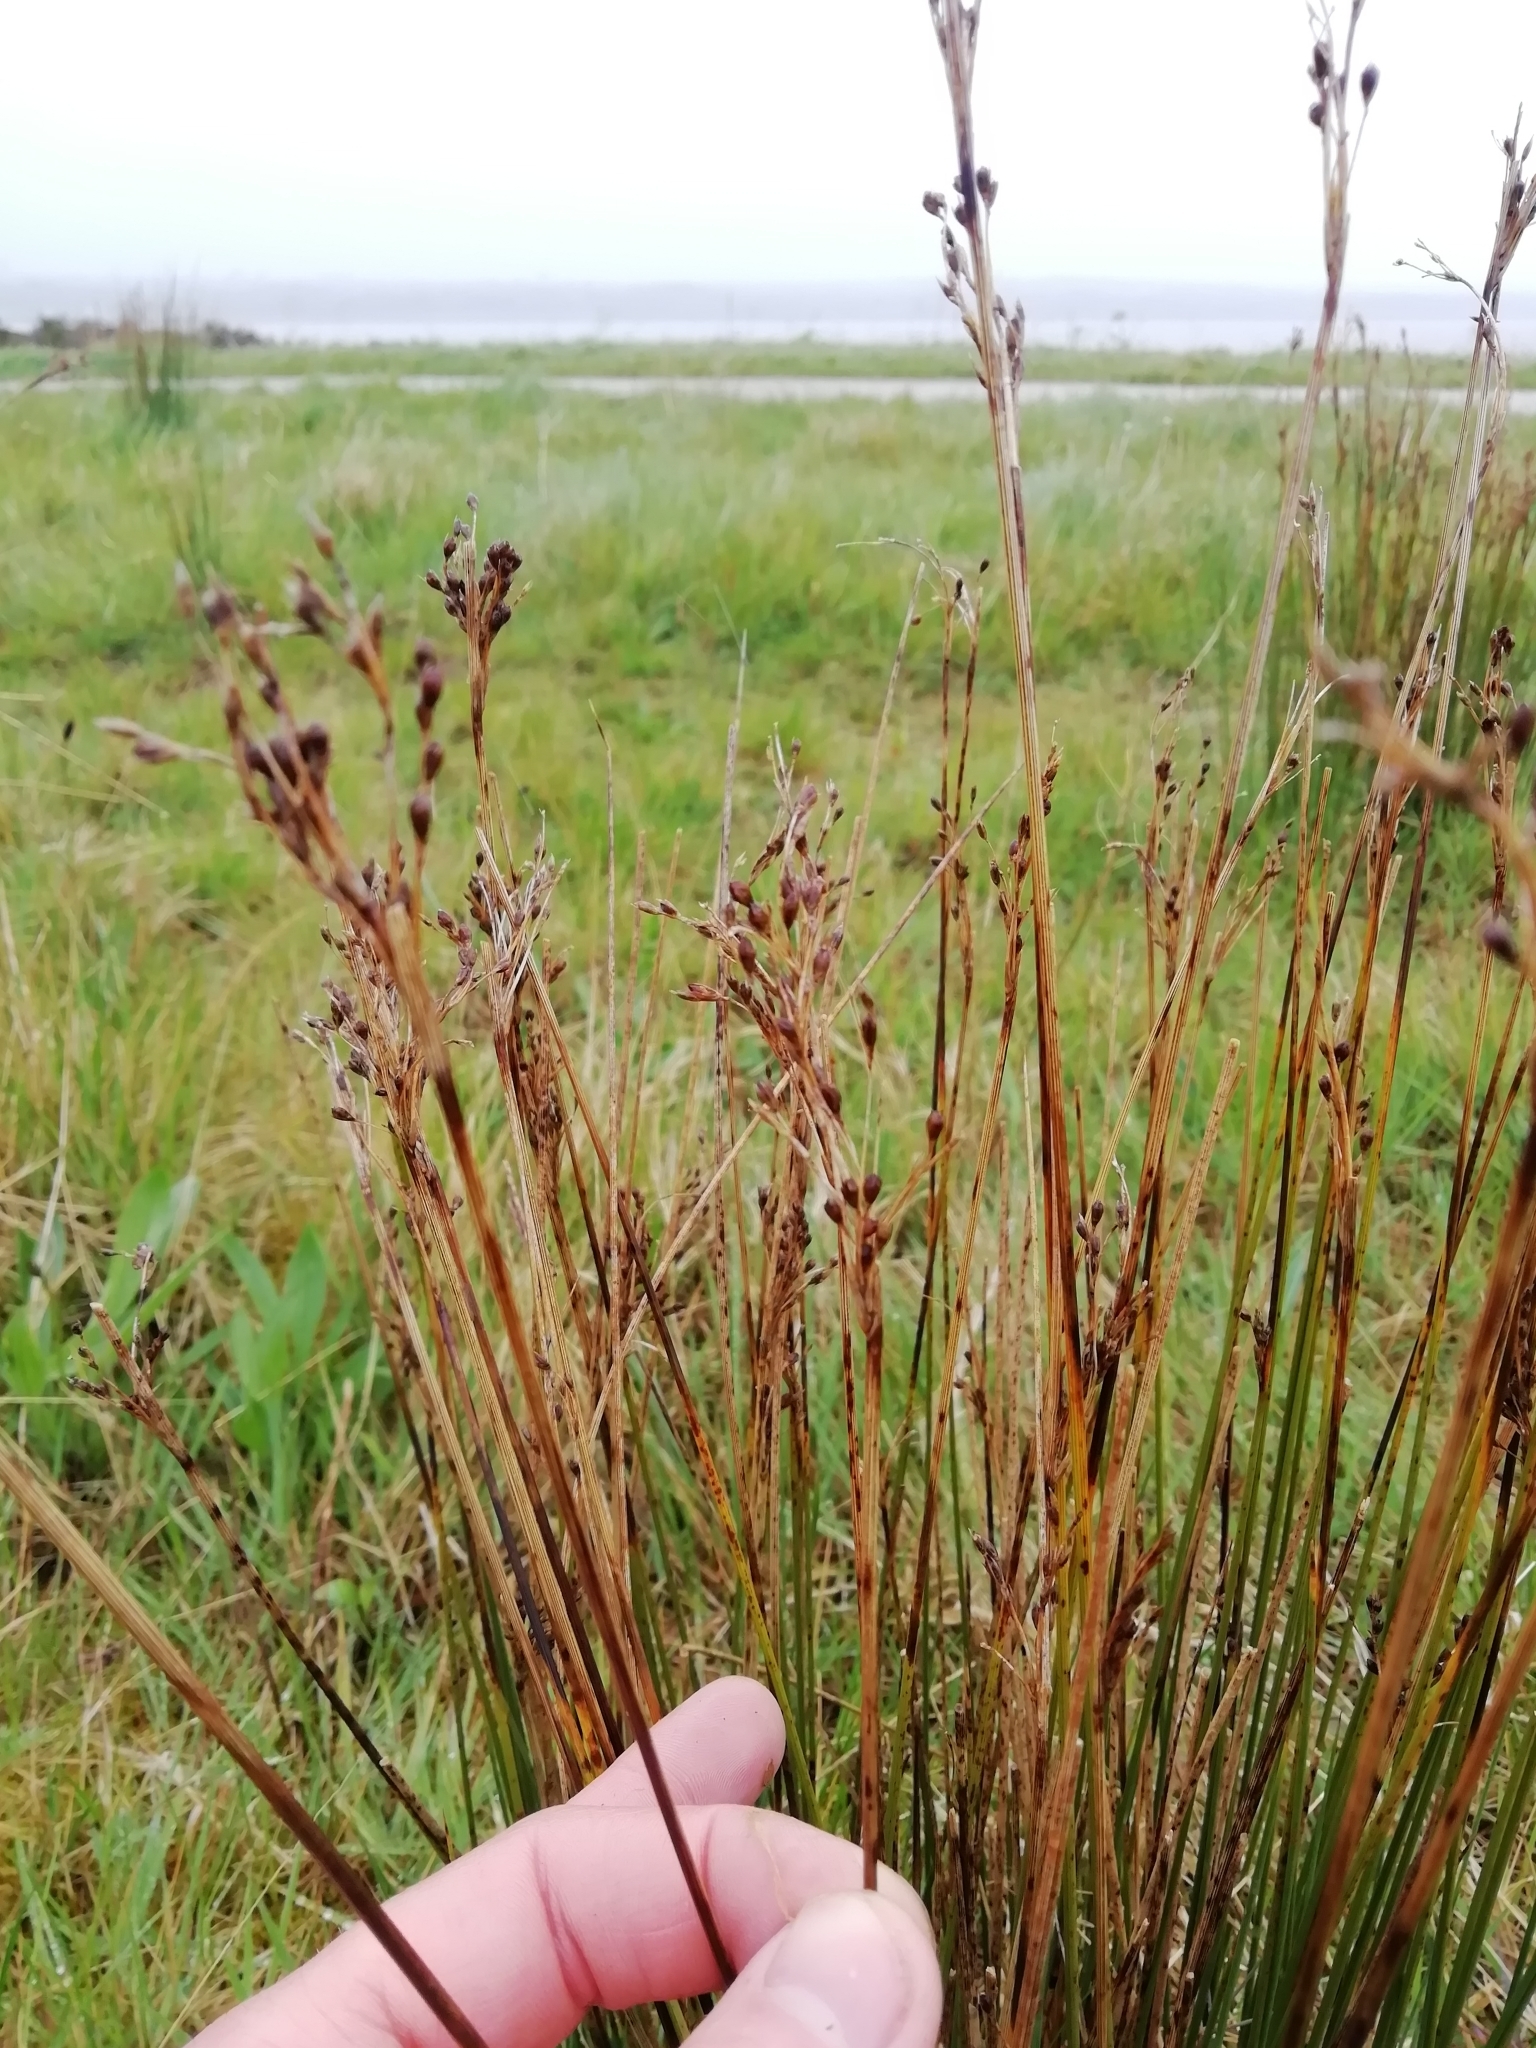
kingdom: Plantae
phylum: Tracheophyta
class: Liliopsida
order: Poales
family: Juncaceae
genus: Juncus
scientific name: Juncus inflexus
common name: Hard rush
